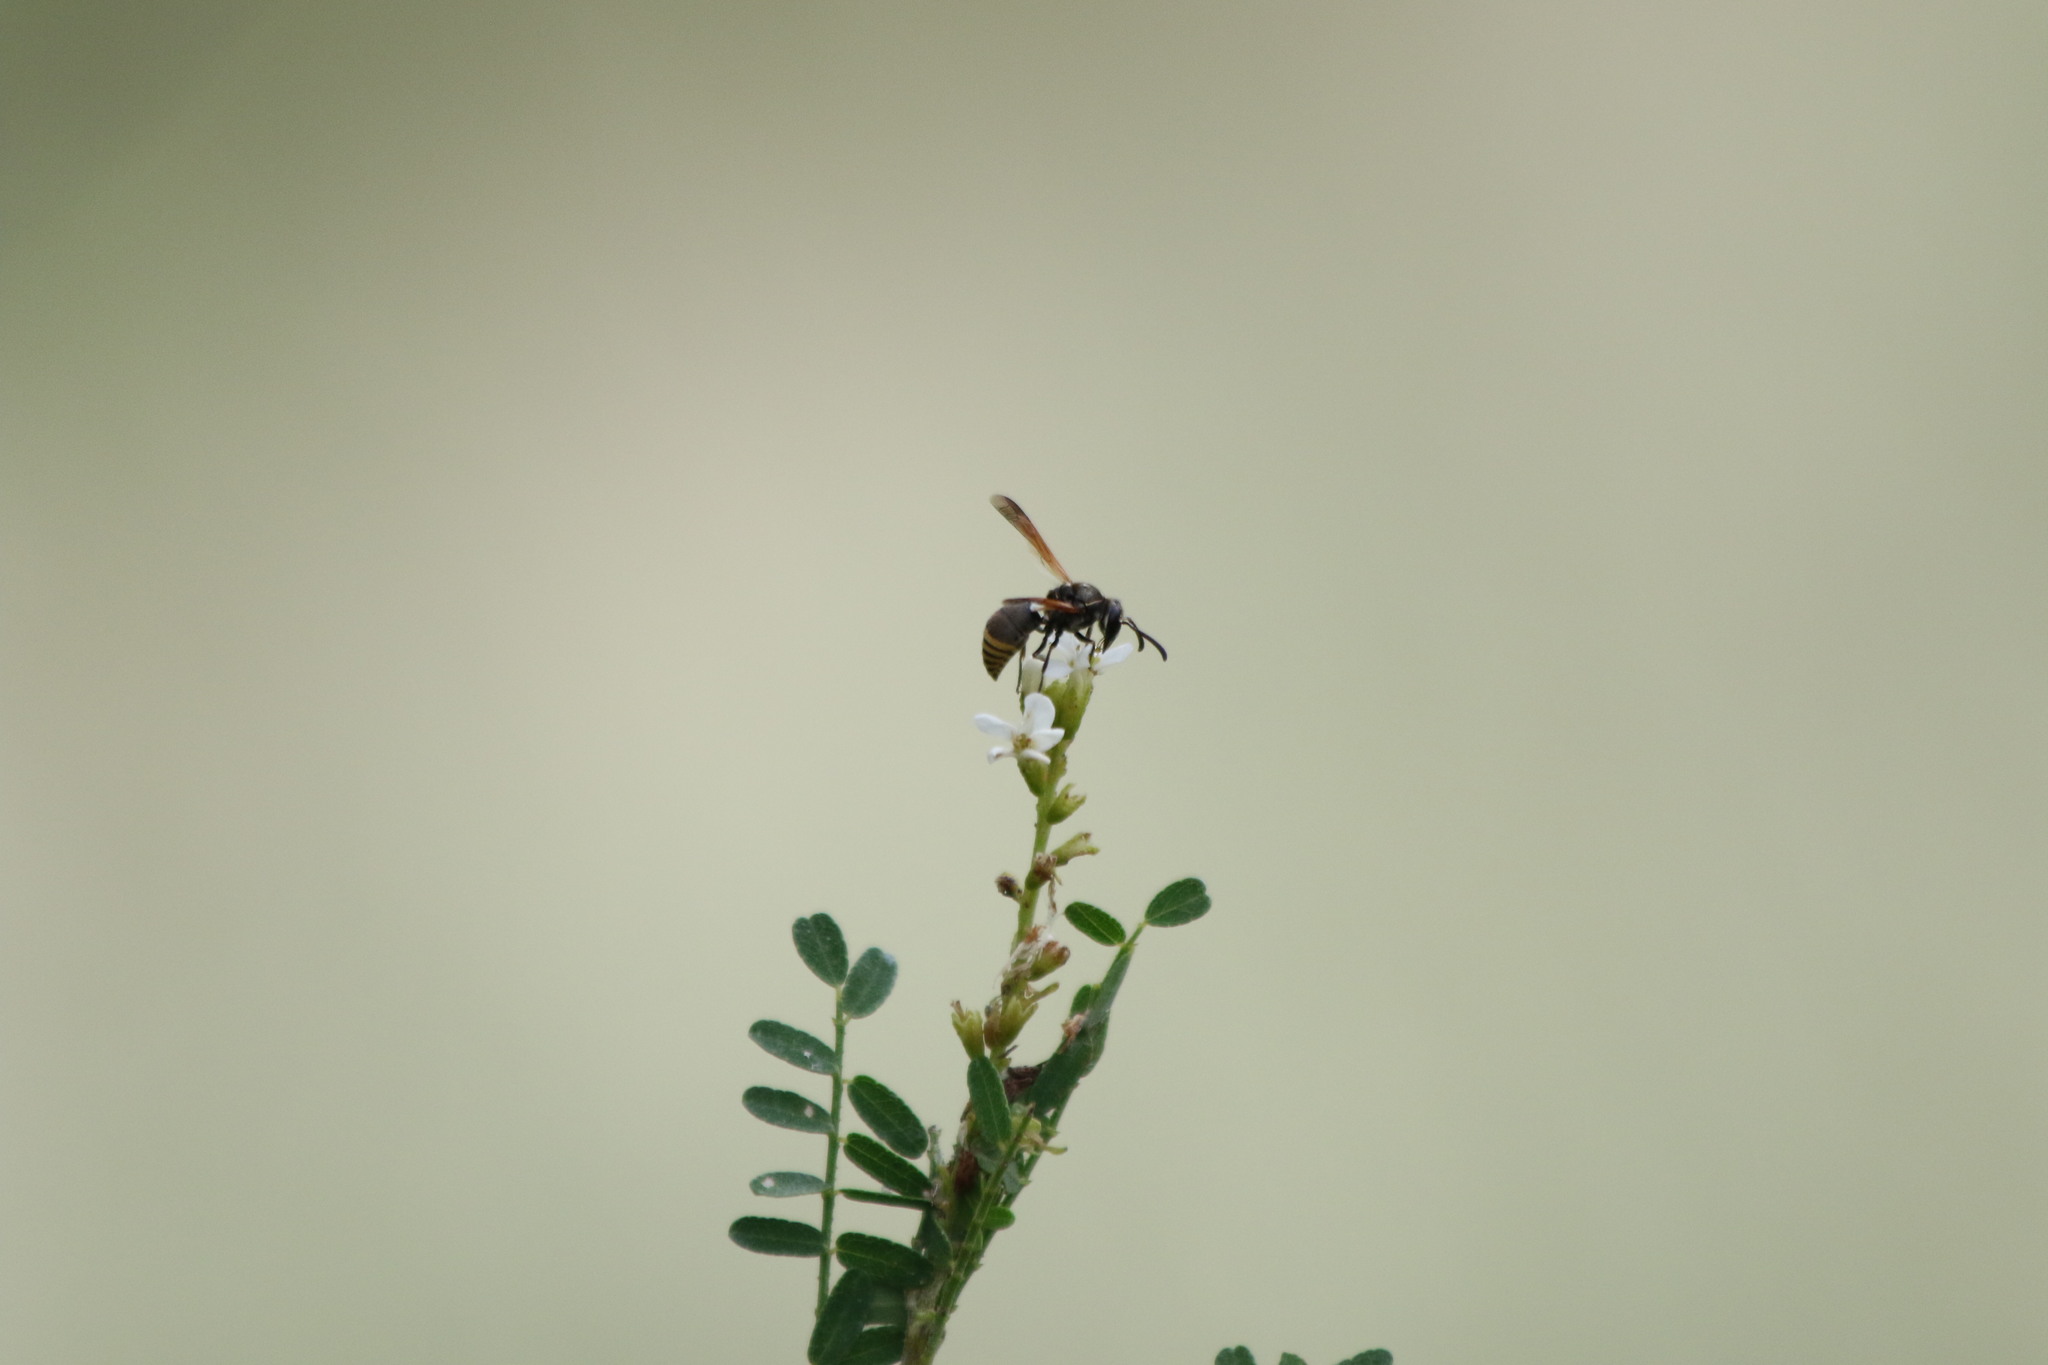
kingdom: Animalia
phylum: Arthropoda
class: Insecta
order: Hymenoptera
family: Eumenidae
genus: Pachodynerus
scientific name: Pachodynerus
